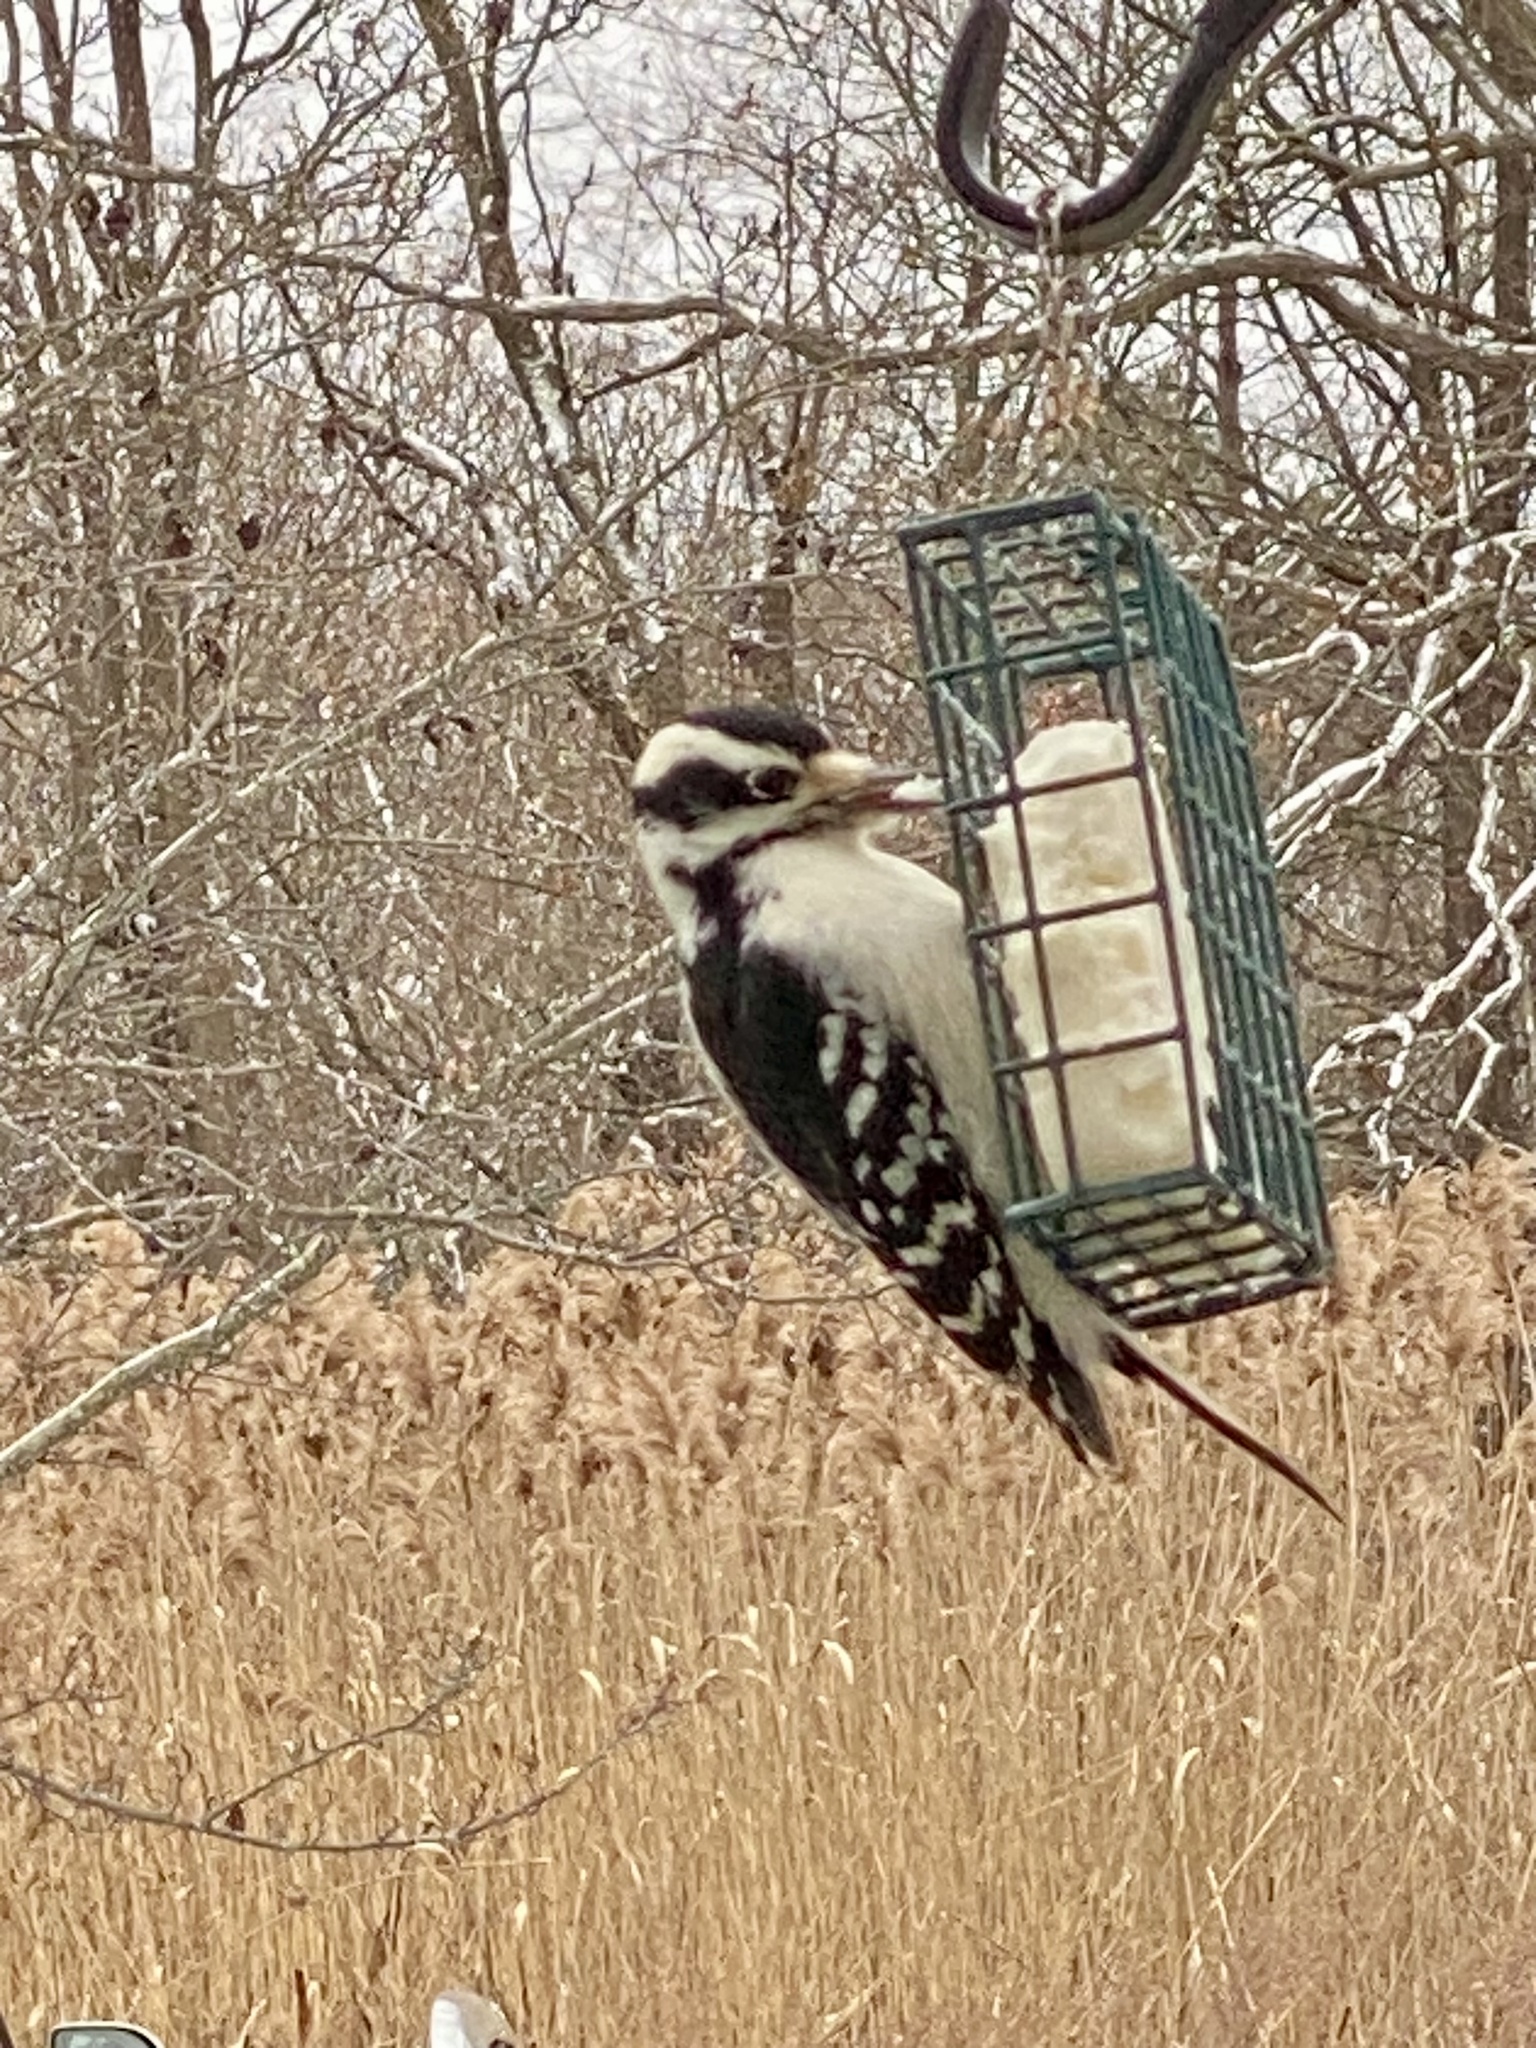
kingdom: Animalia
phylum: Chordata
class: Aves
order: Piciformes
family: Picidae
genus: Dryobates
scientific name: Dryobates pubescens
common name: Downy woodpecker
